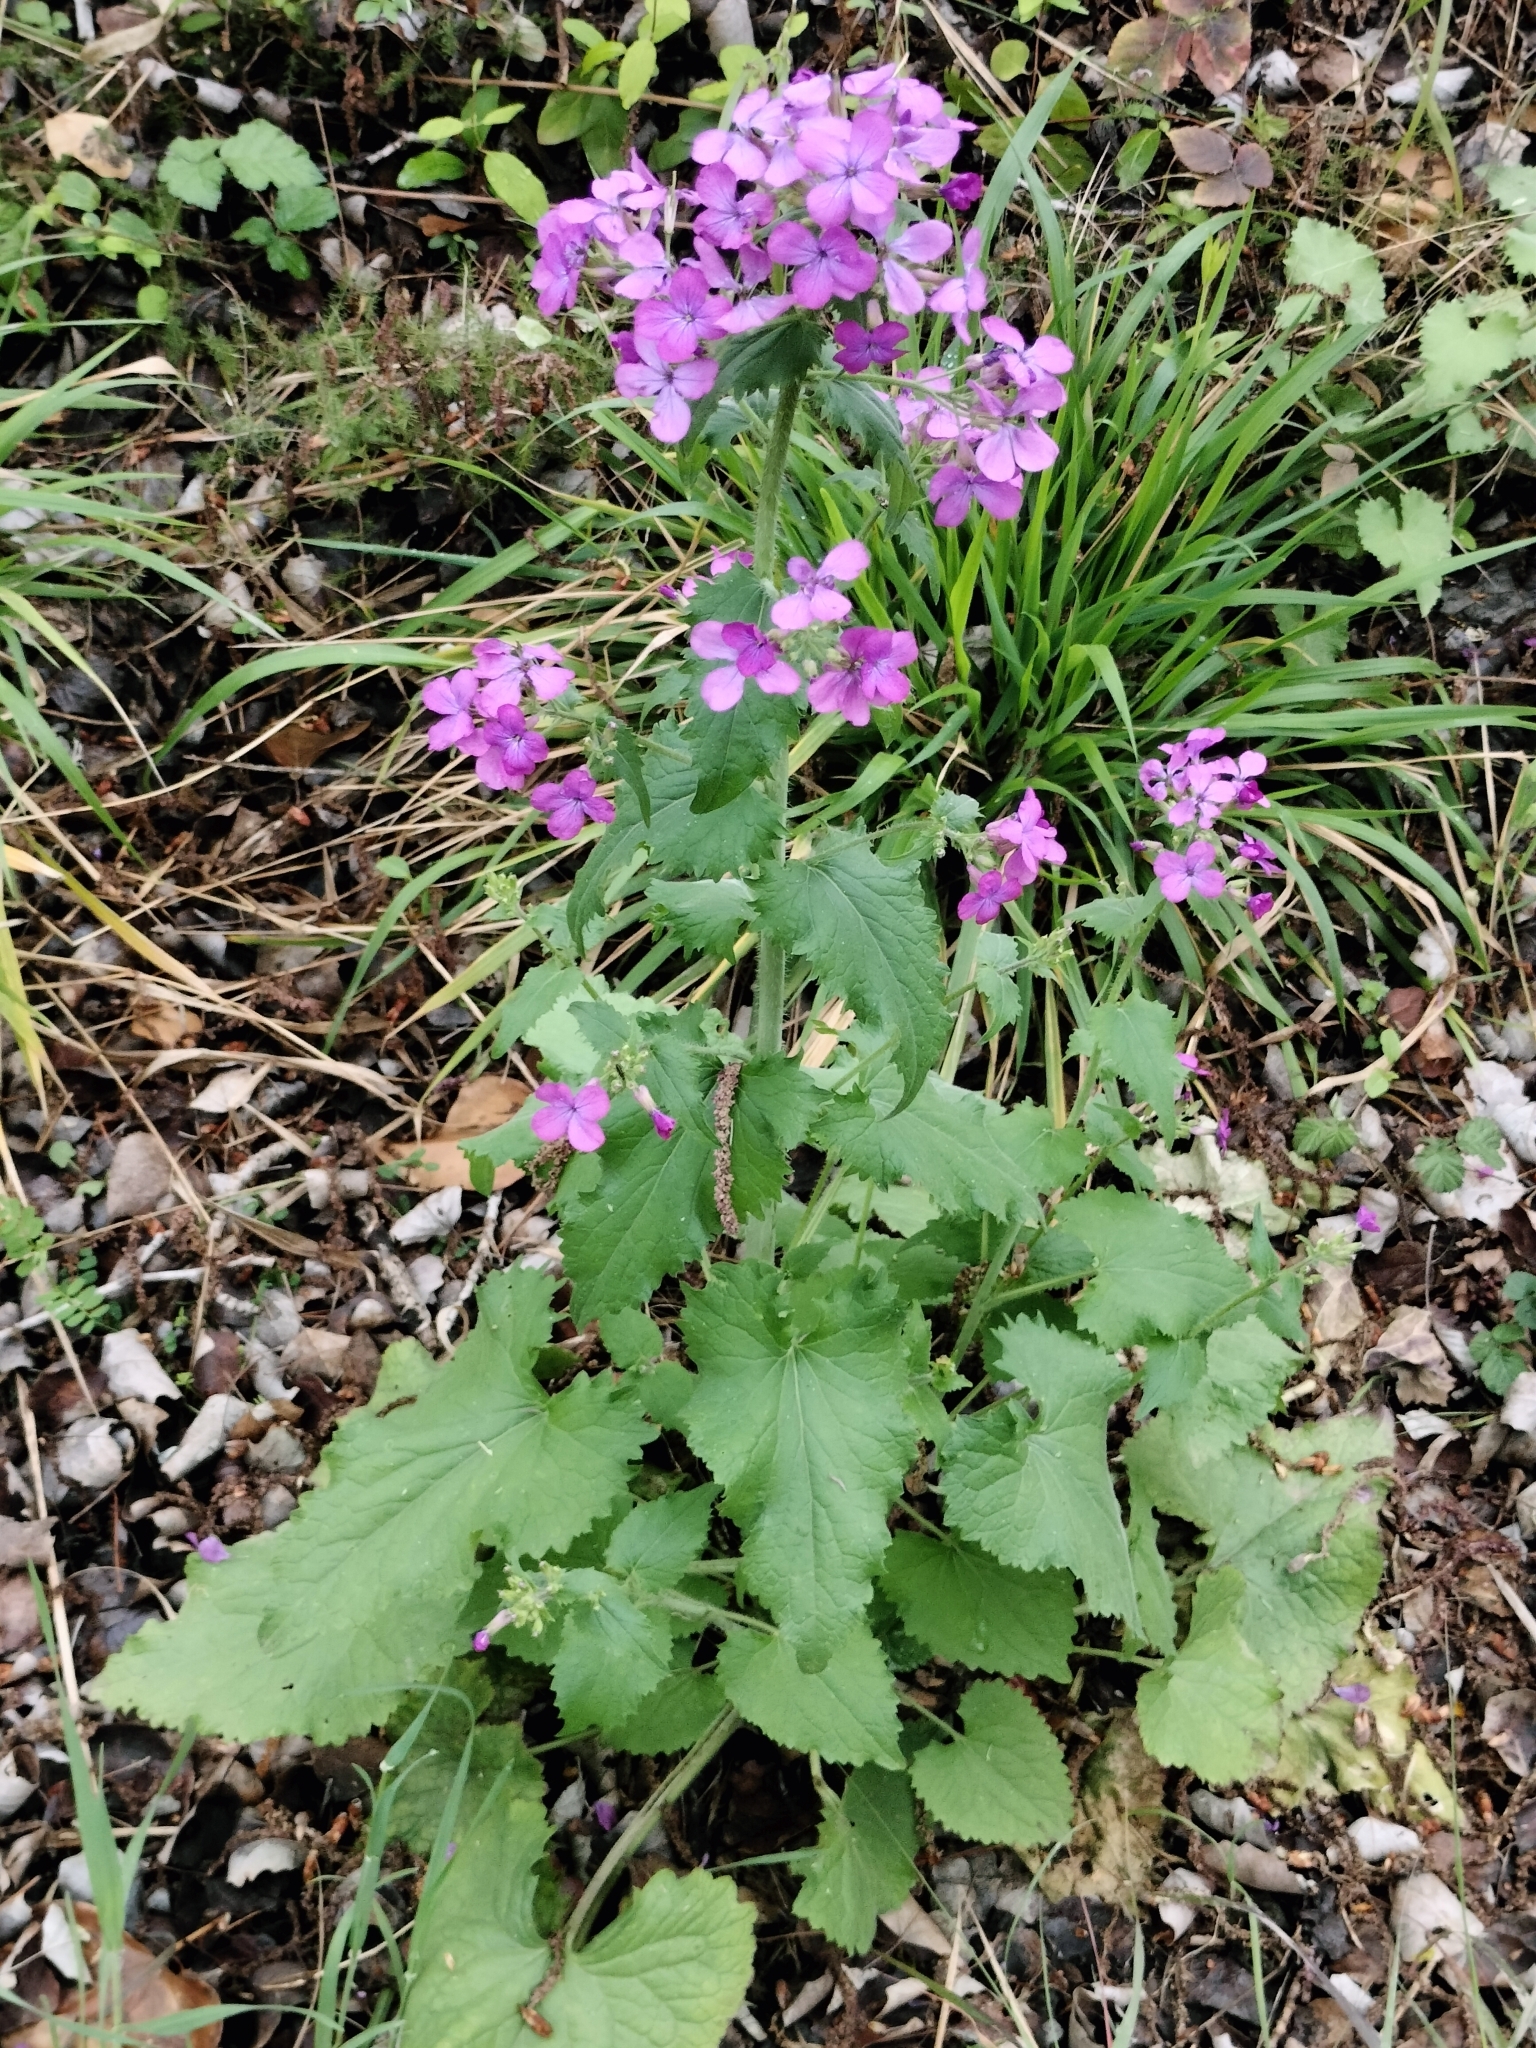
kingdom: Plantae
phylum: Tracheophyta
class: Magnoliopsida
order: Brassicales
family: Brassicaceae
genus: Lunaria
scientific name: Lunaria annua
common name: Honesty
